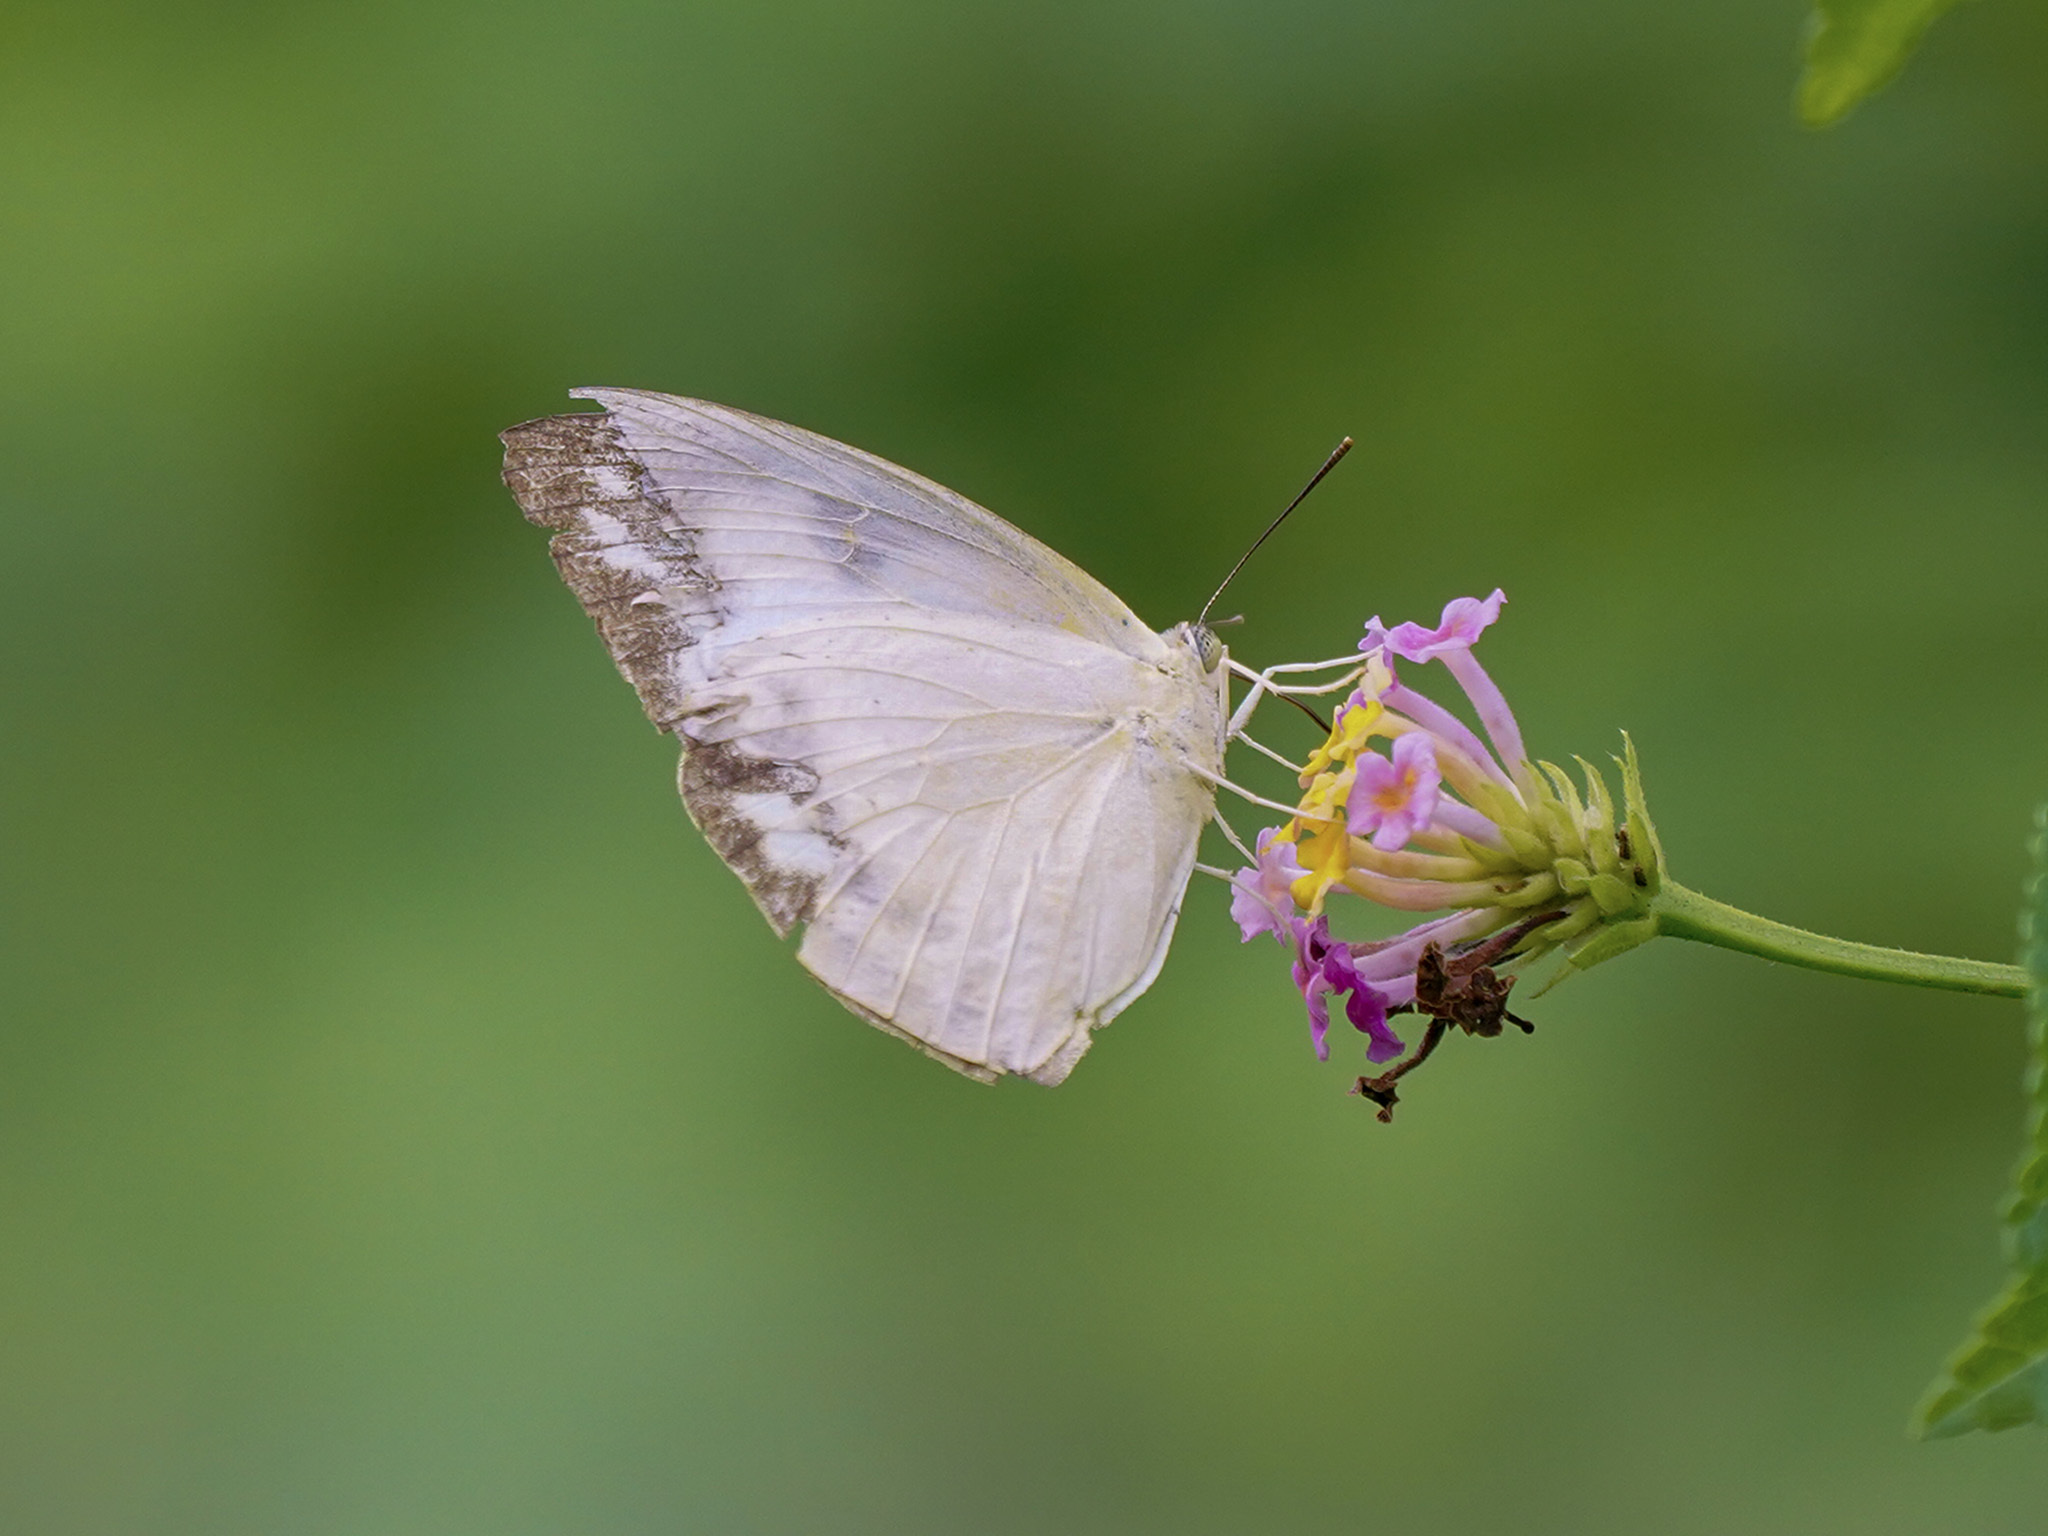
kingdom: Animalia
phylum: Arthropoda
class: Insecta
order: Lepidoptera
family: Pieridae
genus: Catopsilia
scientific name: Catopsilia pomona
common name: Common emigrant
